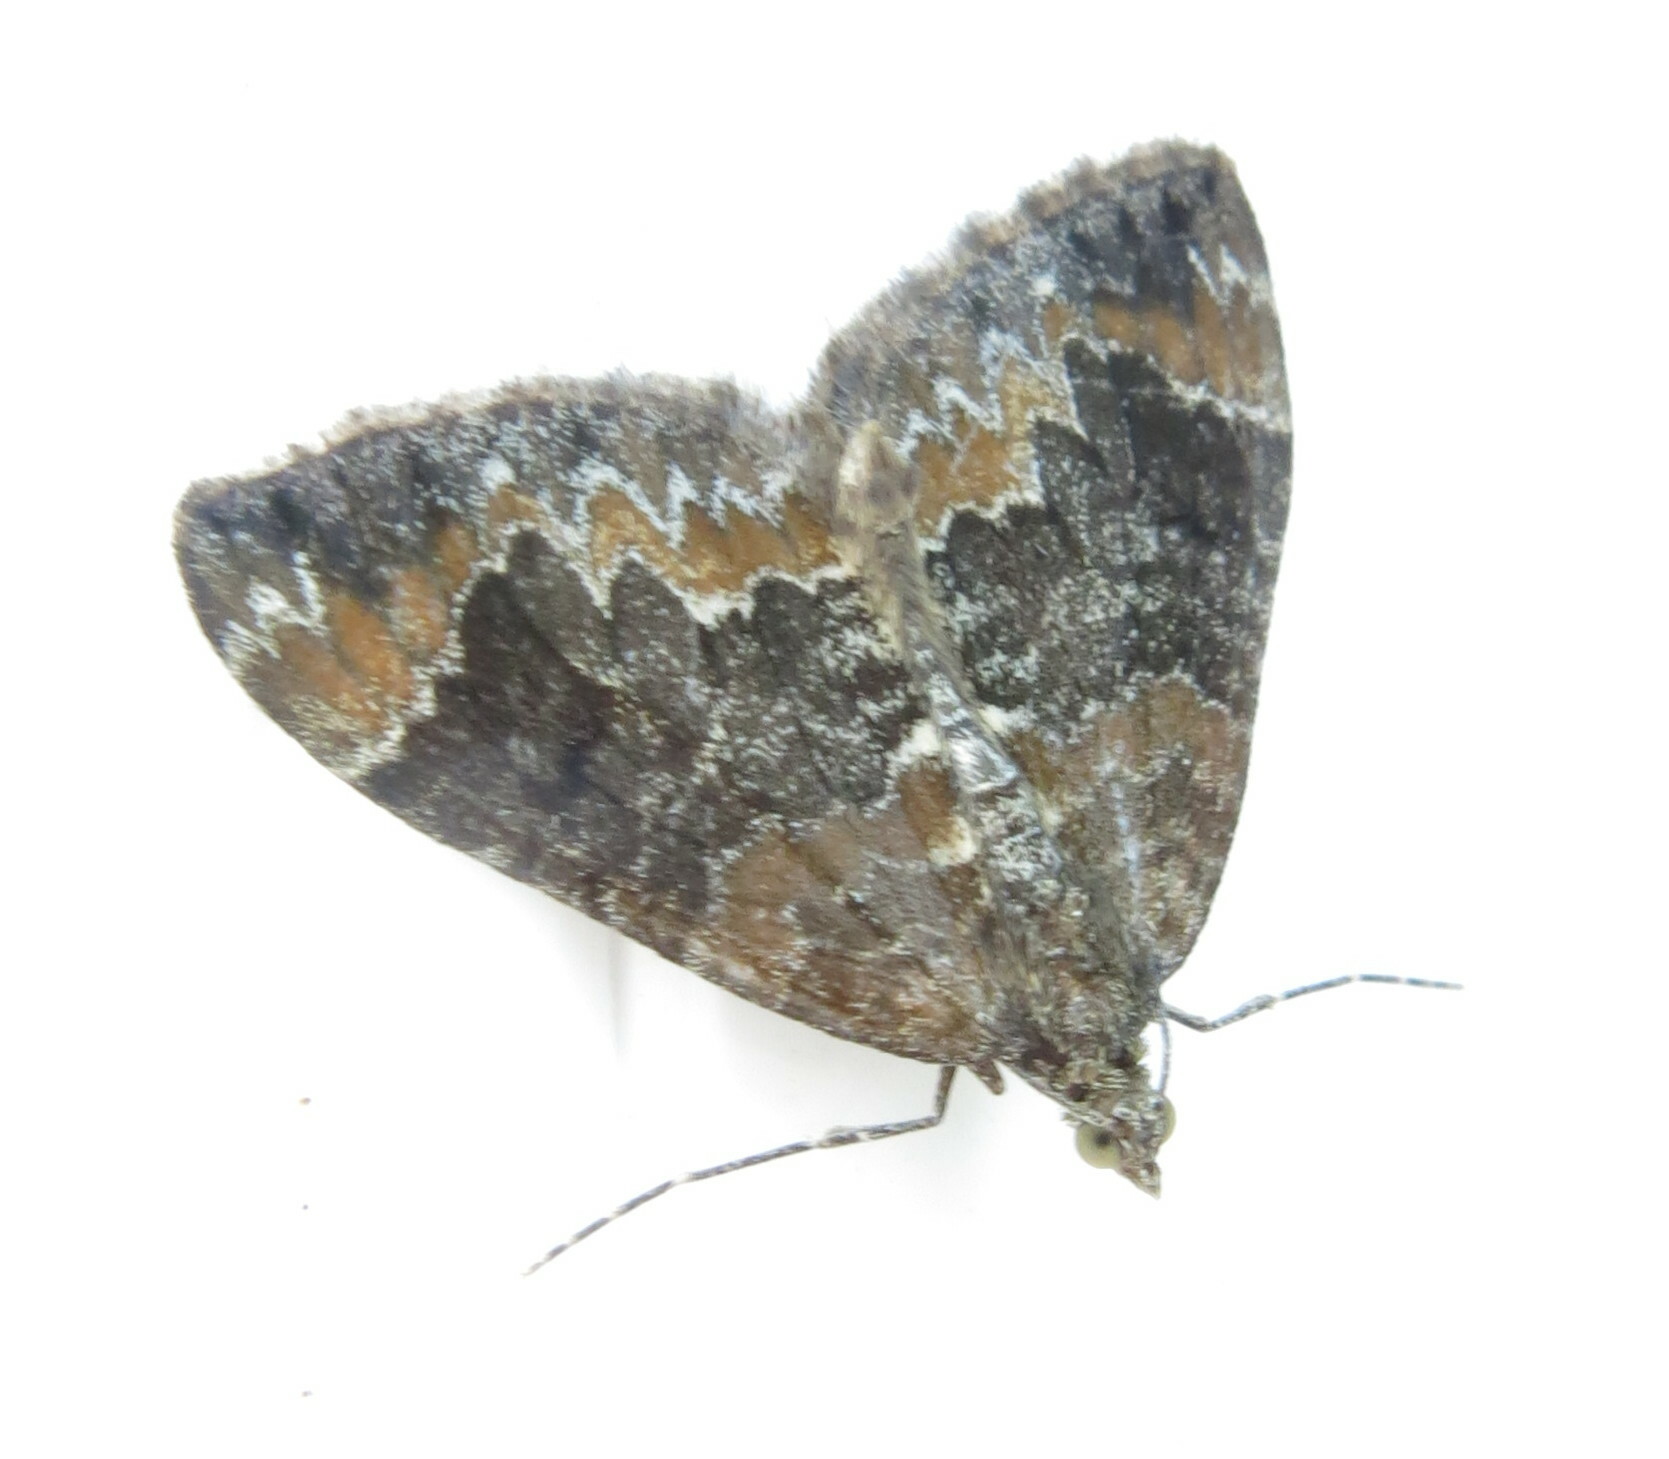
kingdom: Animalia
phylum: Arthropoda
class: Insecta
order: Lepidoptera
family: Geometridae
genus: Dysstroma
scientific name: Dysstroma truncata
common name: Common marbled carpet
